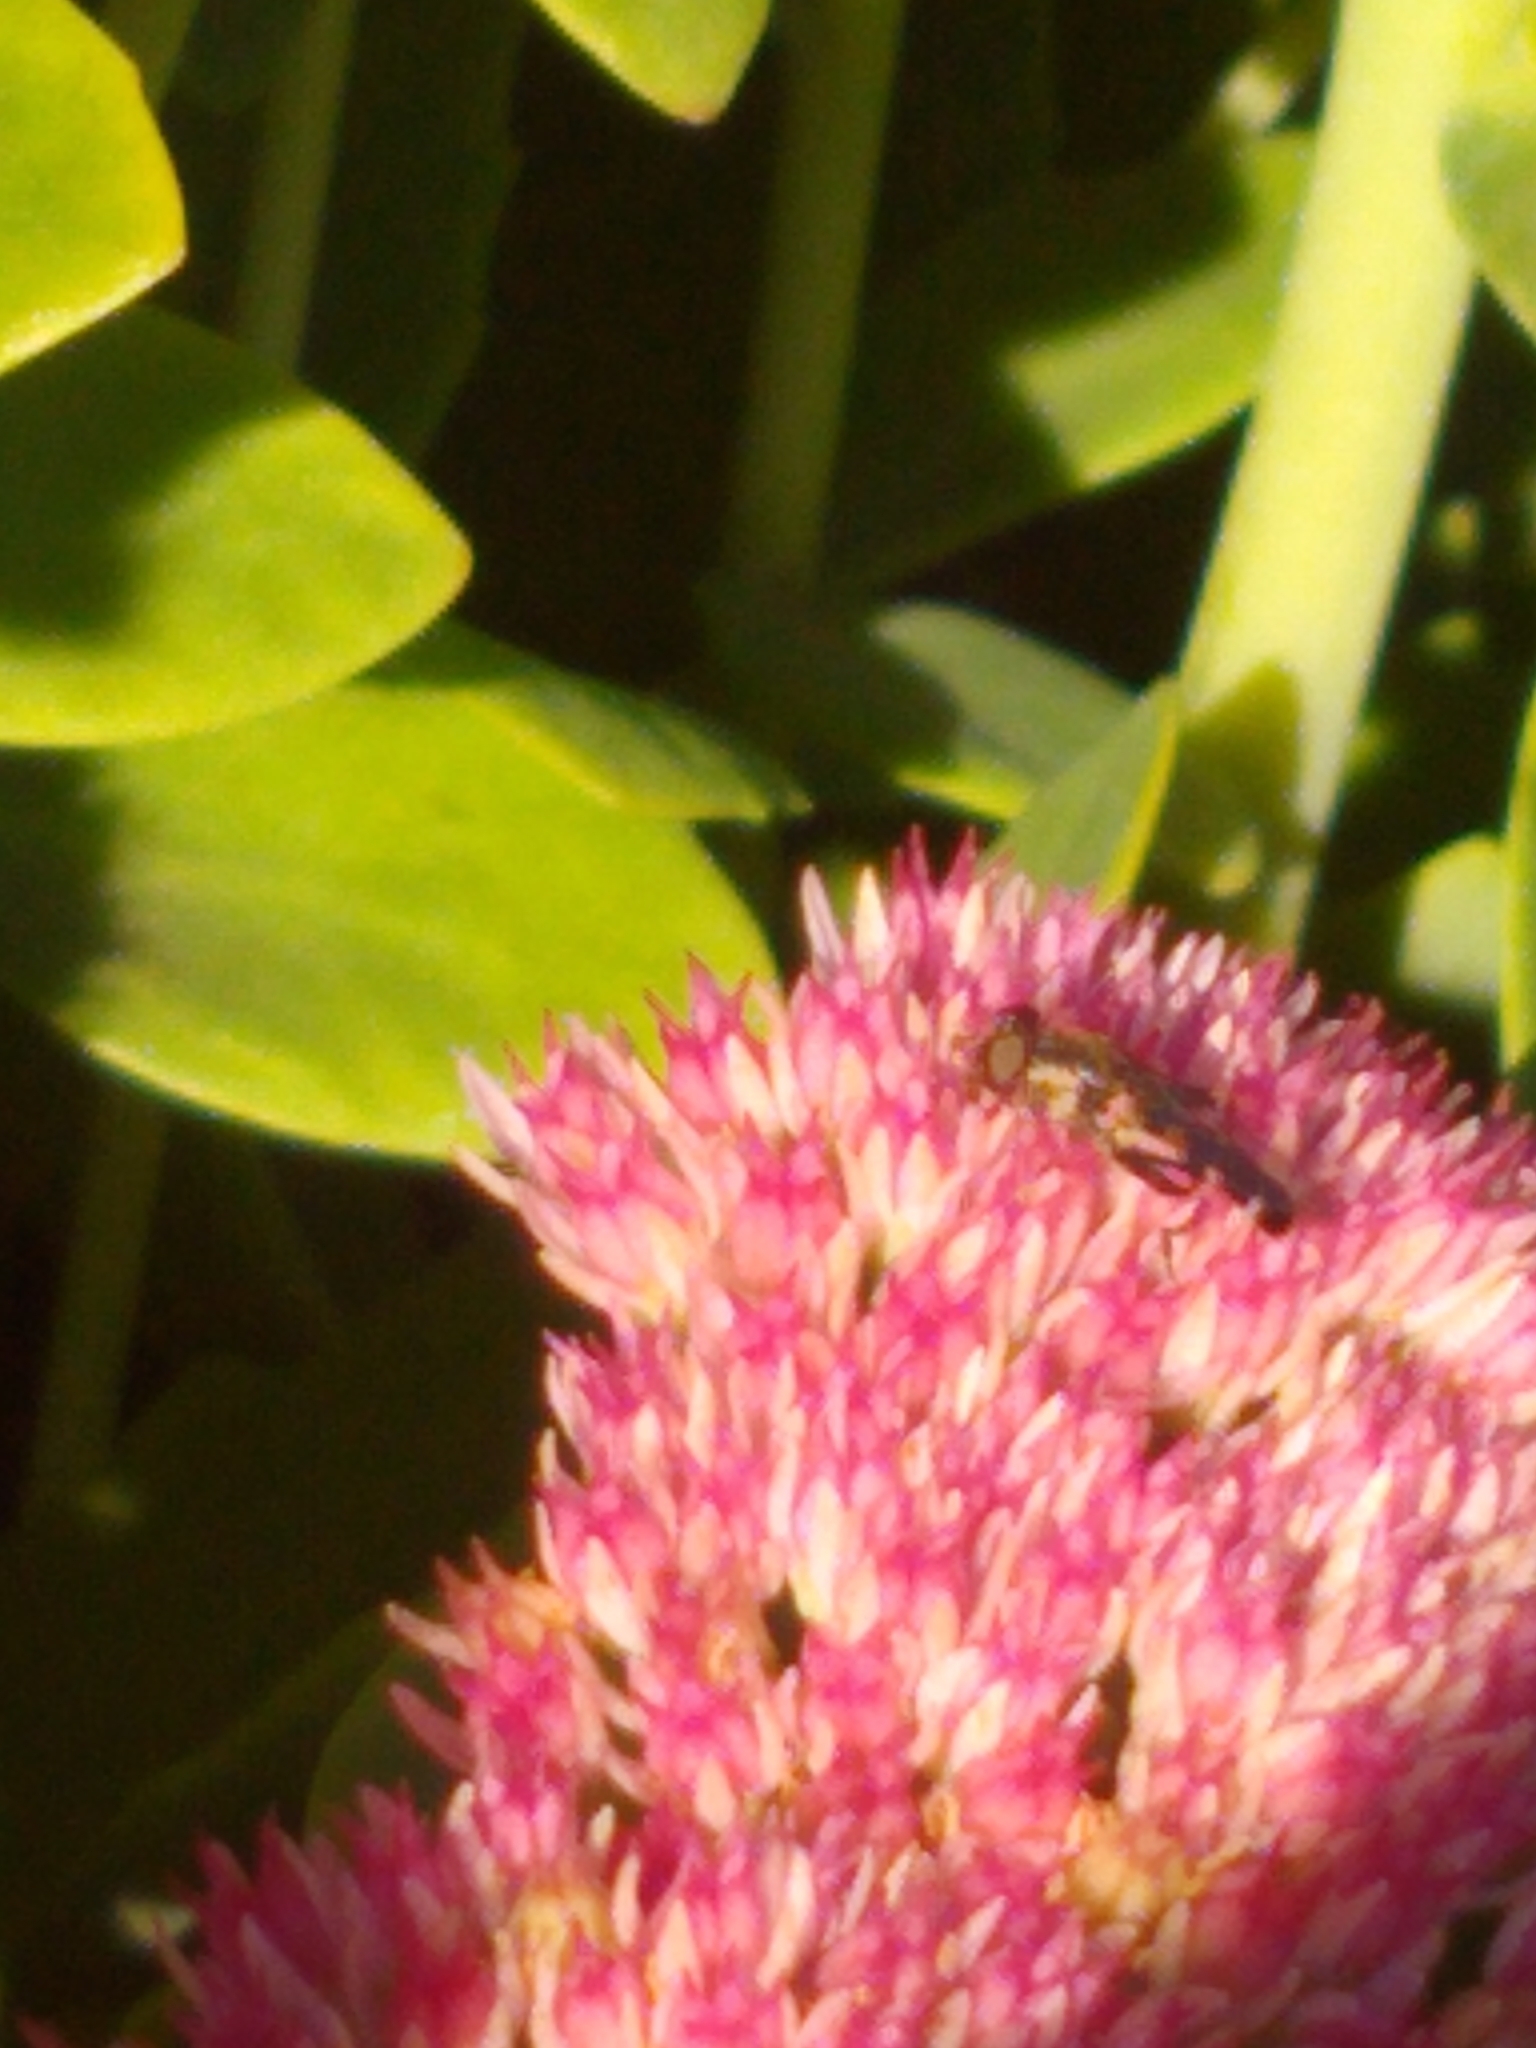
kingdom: Animalia
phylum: Arthropoda
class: Insecta
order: Diptera
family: Syrphidae
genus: Syritta
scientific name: Syritta pipiens
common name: Hover fly
